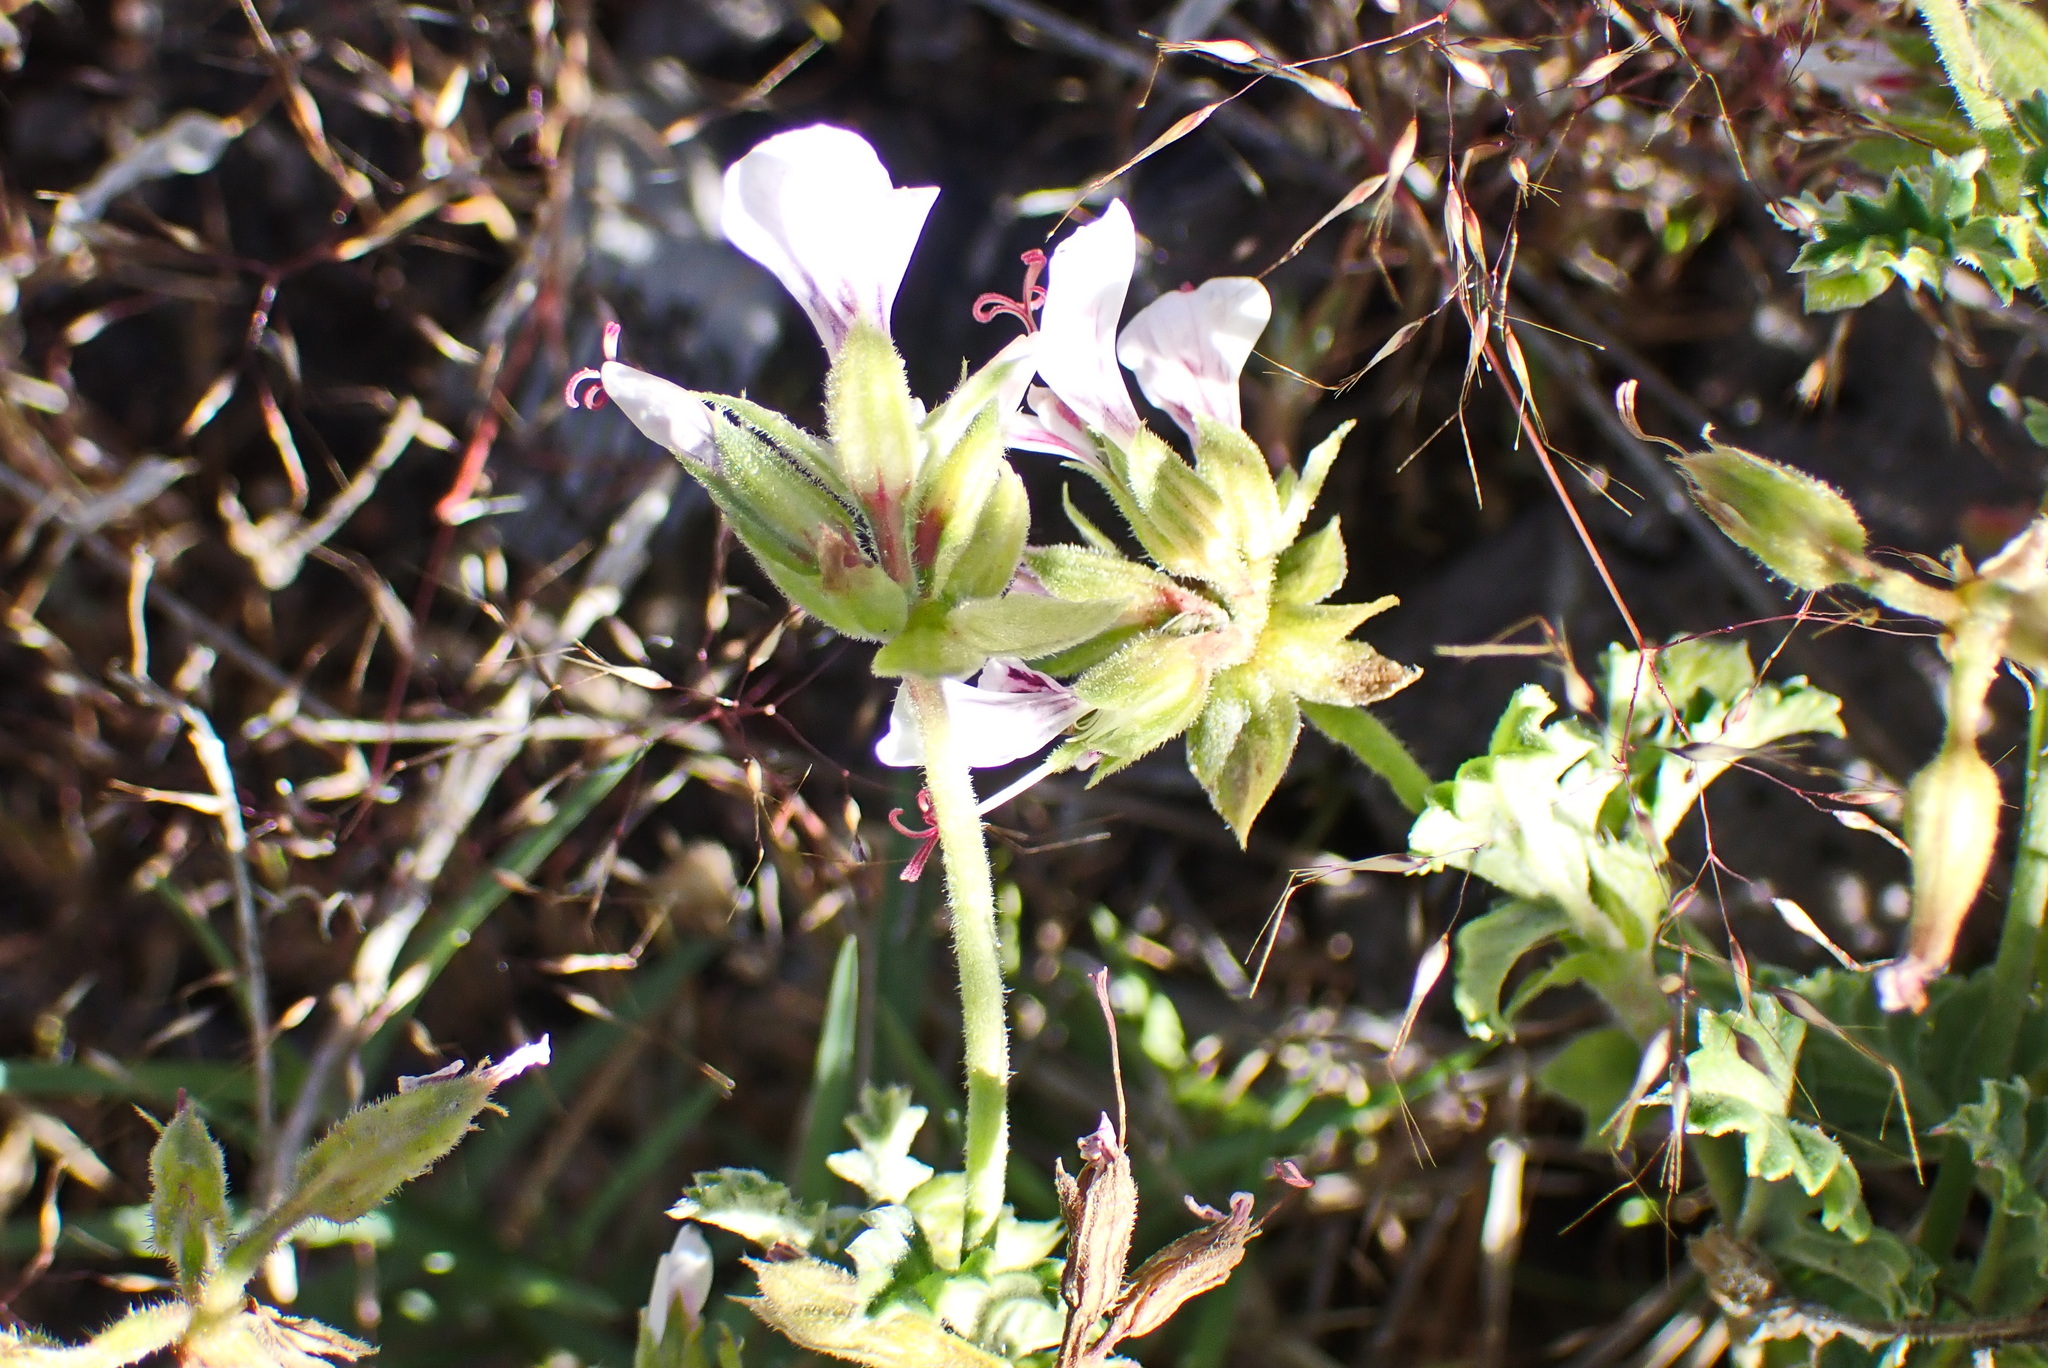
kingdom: Plantae
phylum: Tracheophyta
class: Magnoliopsida
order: Geraniales
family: Geraniaceae
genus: Pelargonium
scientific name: Pelargonium candicans
